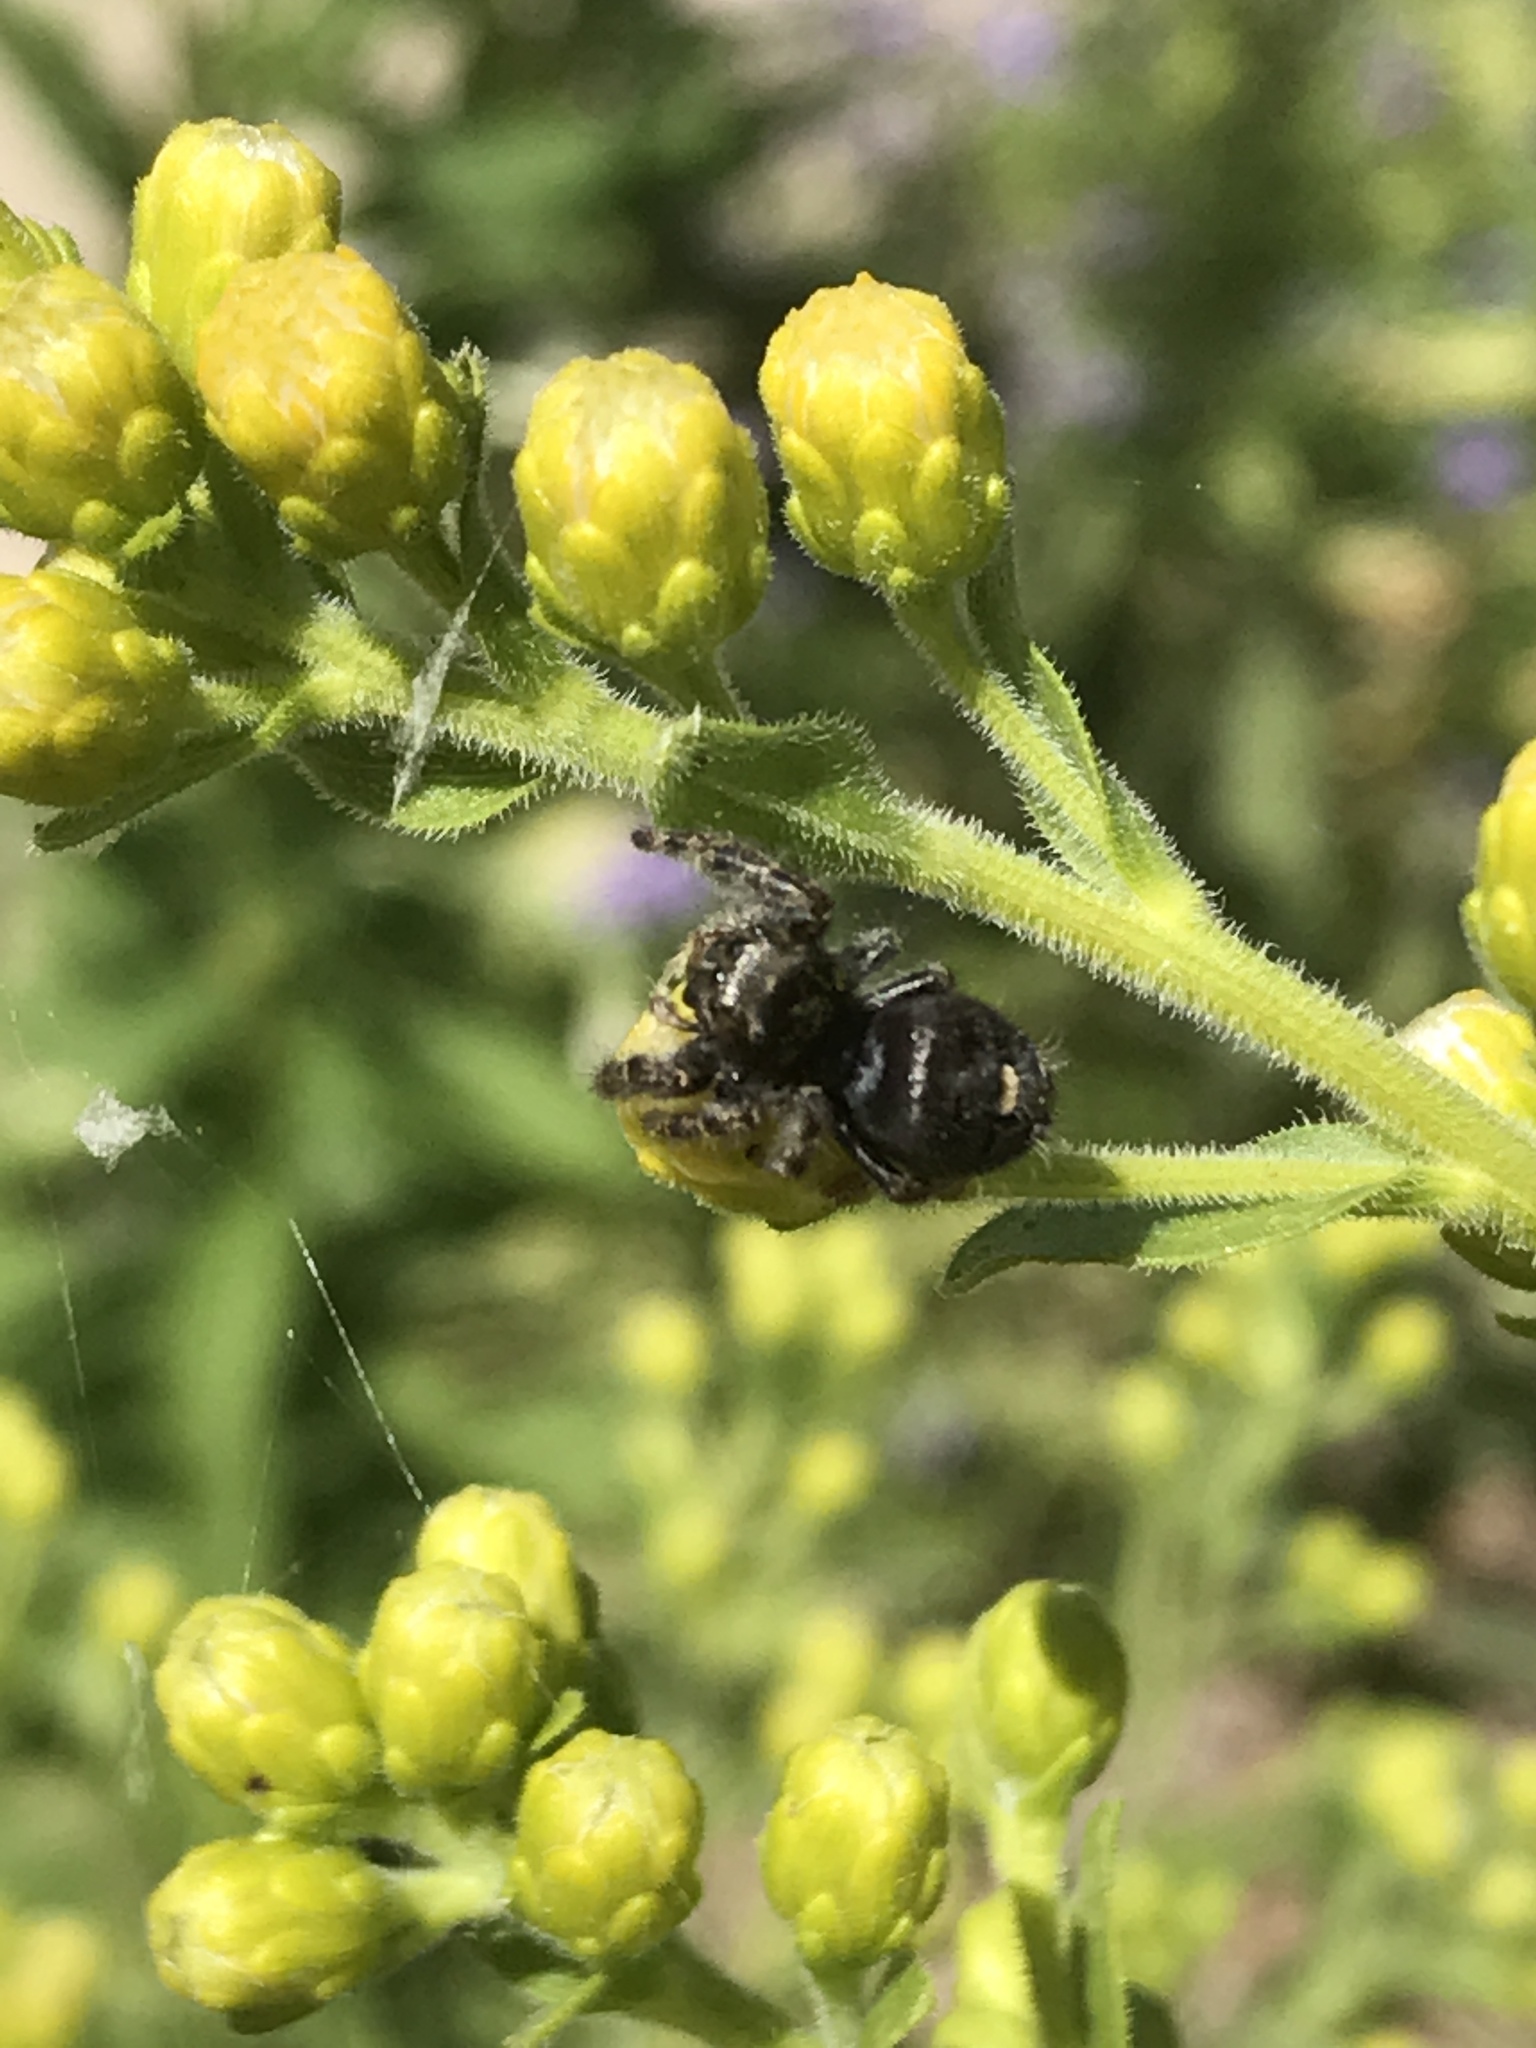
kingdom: Animalia
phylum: Arthropoda
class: Arachnida
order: Araneae
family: Salticidae
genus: Phidippus
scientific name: Phidippus audax
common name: Bold jumper
